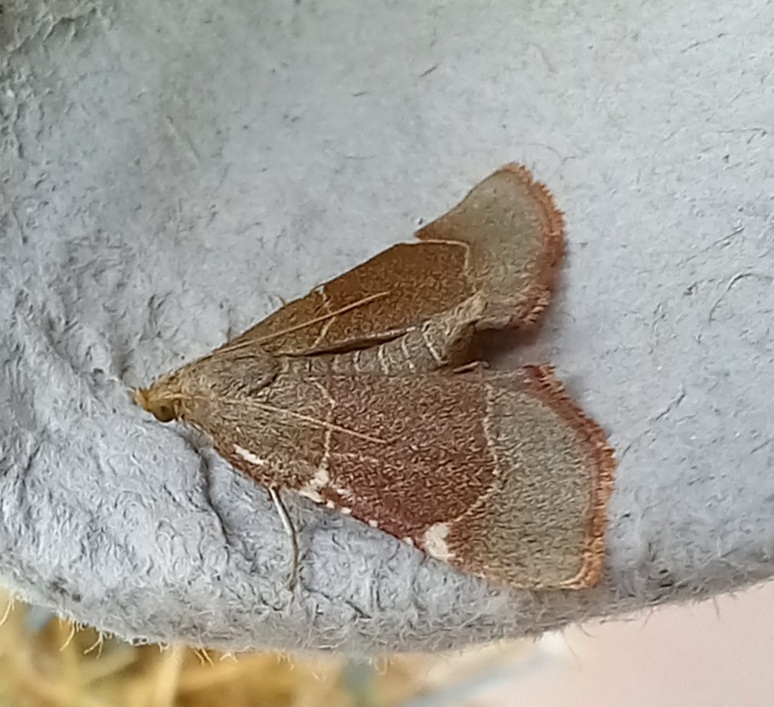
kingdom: Animalia
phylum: Arthropoda
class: Insecta
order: Lepidoptera
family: Pyralidae
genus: Hypsopygia
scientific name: Hypsopygia fulvocilialis
